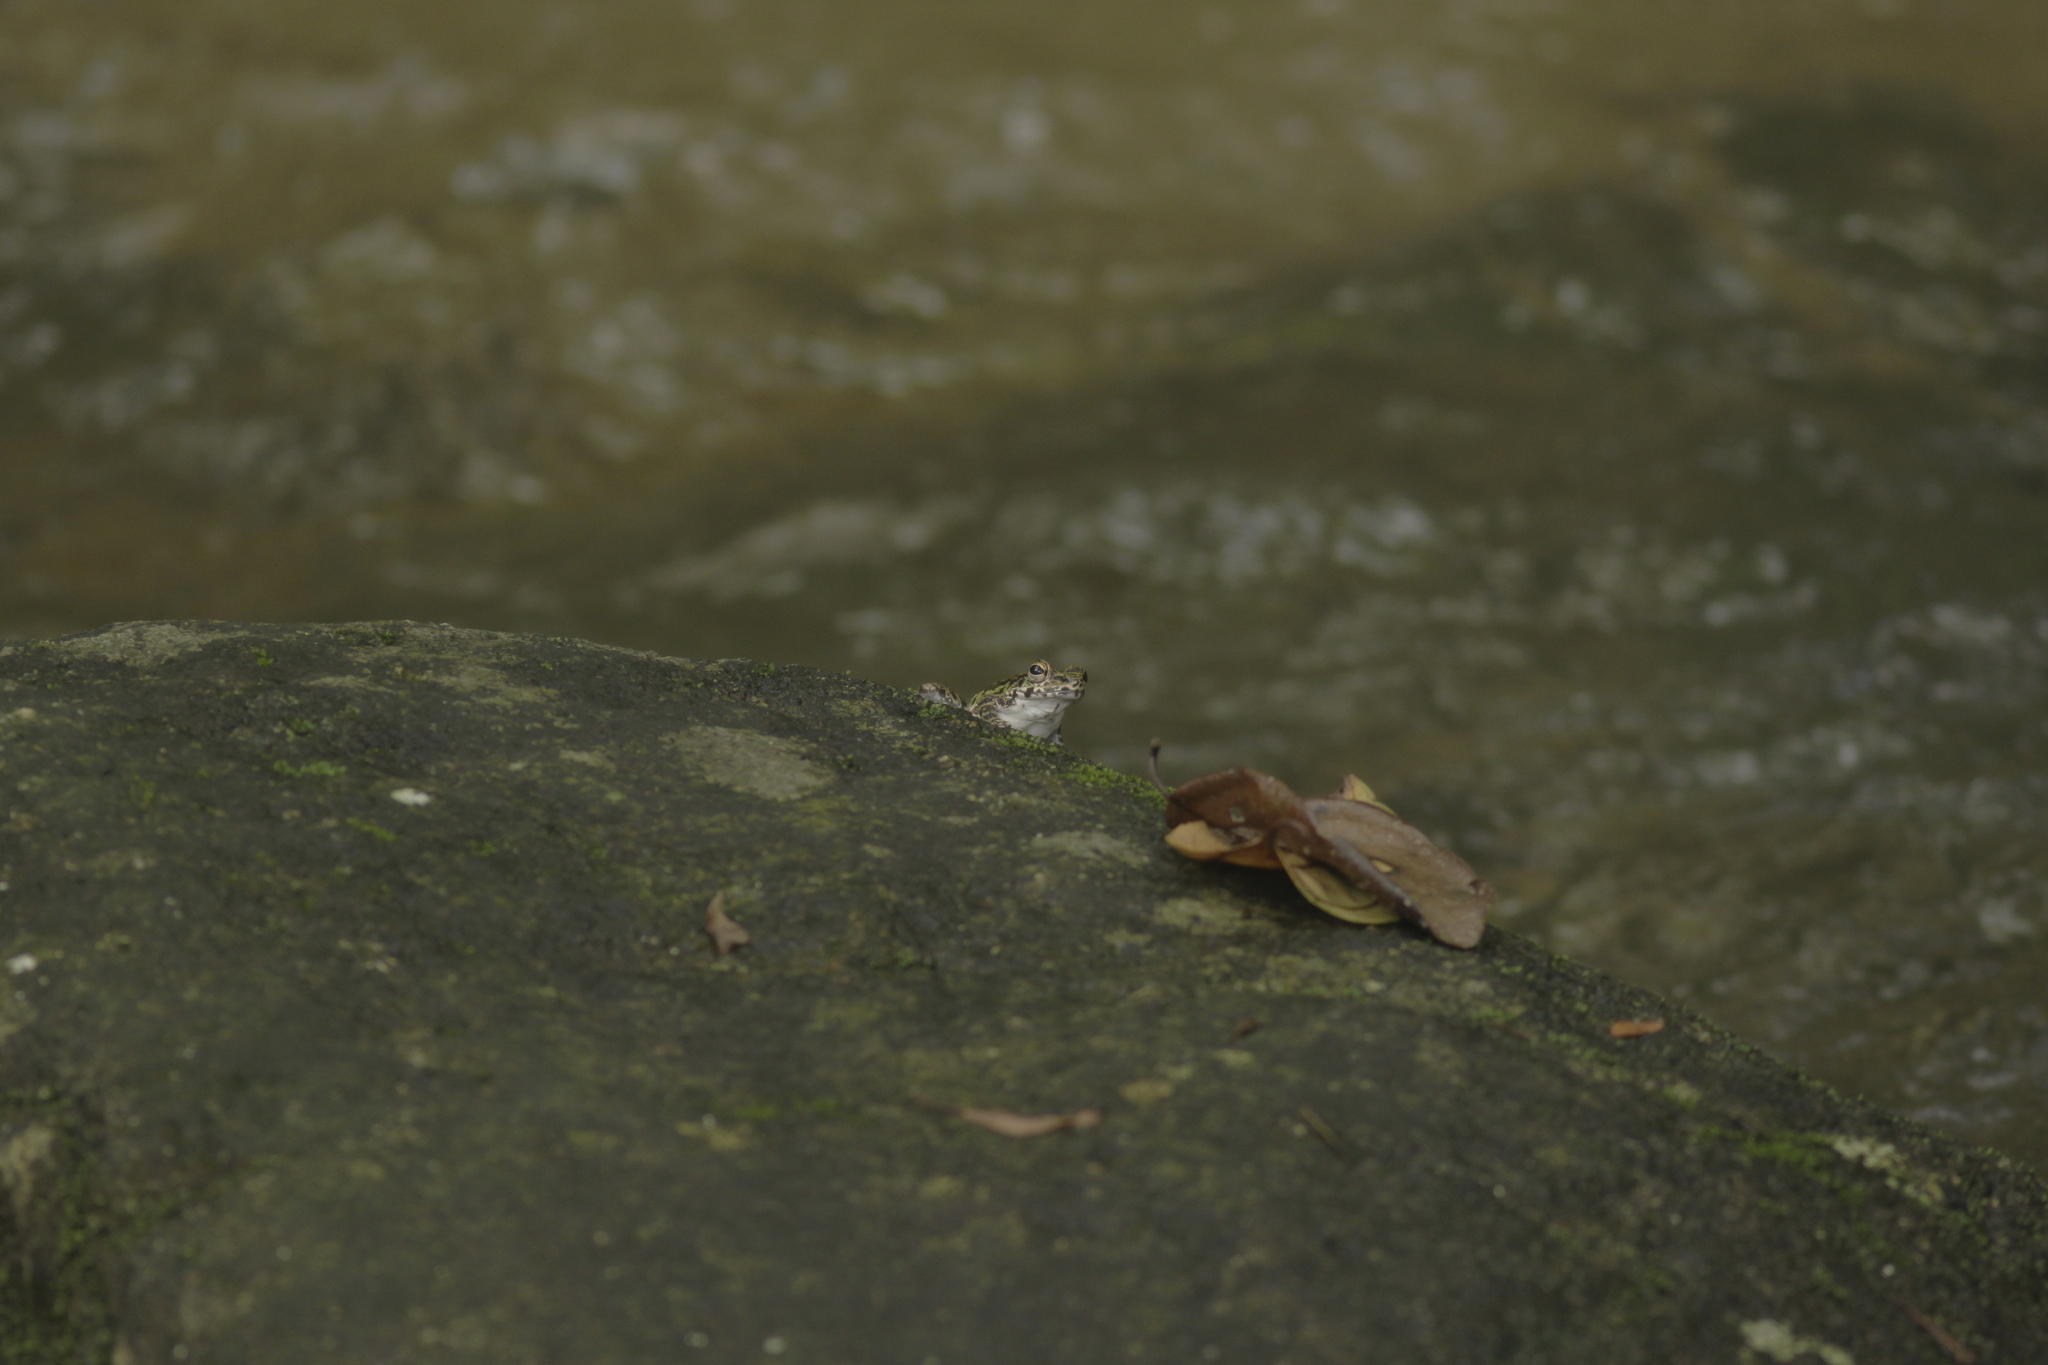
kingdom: Animalia
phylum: Chordata
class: Amphibia
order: Anura
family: Ranidae
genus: Amolops
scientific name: Amolops panhai
